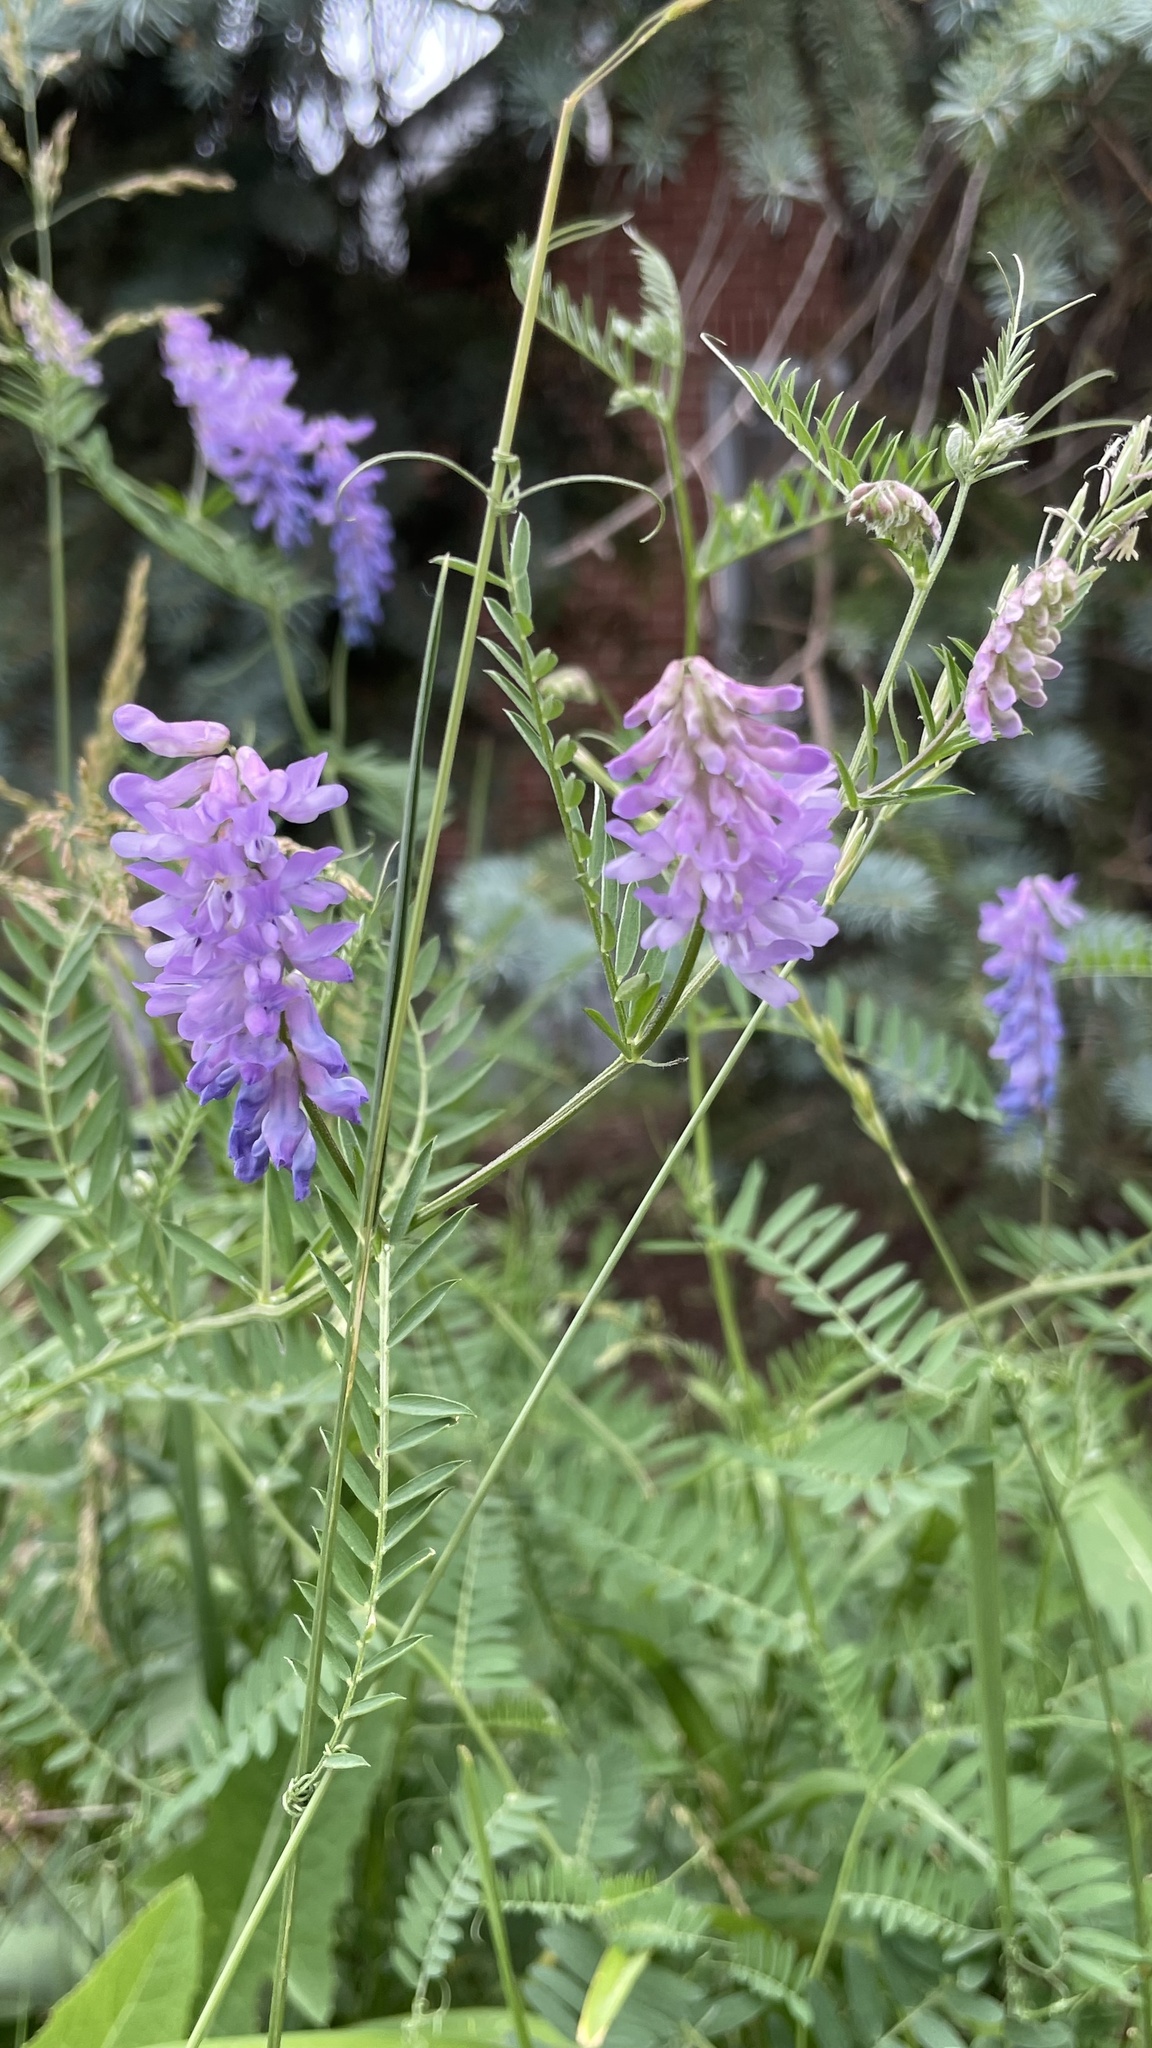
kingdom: Plantae
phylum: Tracheophyta
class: Magnoliopsida
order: Fabales
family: Fabaceae
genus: Vicia
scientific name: Vicia cracca
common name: Bird vetch
